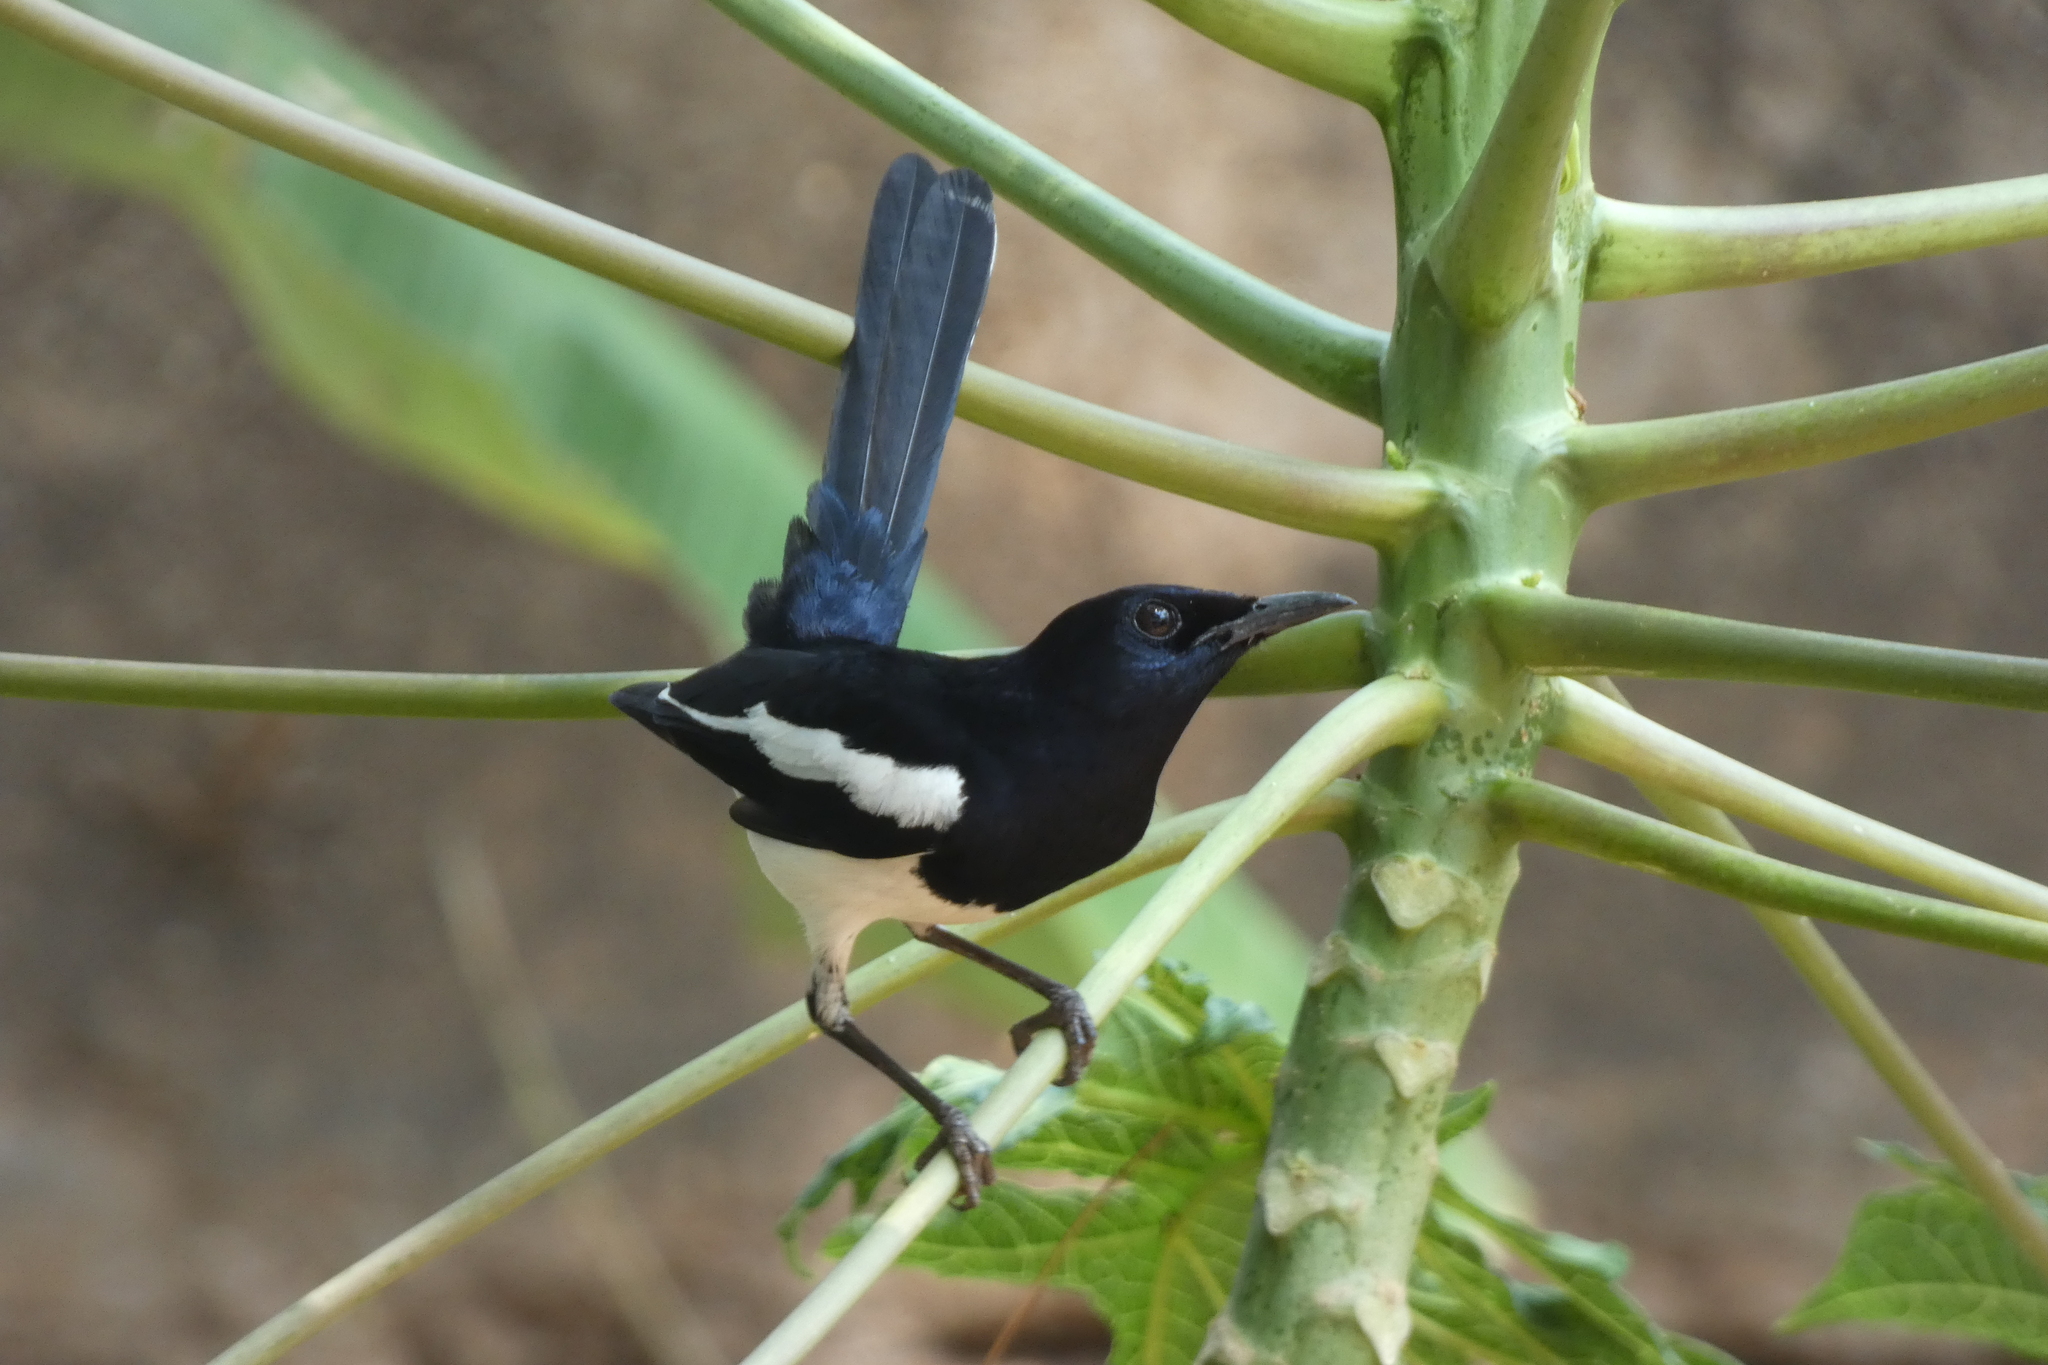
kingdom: Animalia
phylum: Chordata
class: Aves
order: Passeriformes
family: Muscicapidae
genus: Copsychus
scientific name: Copsychus saularis
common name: Oriental magpie-robin
